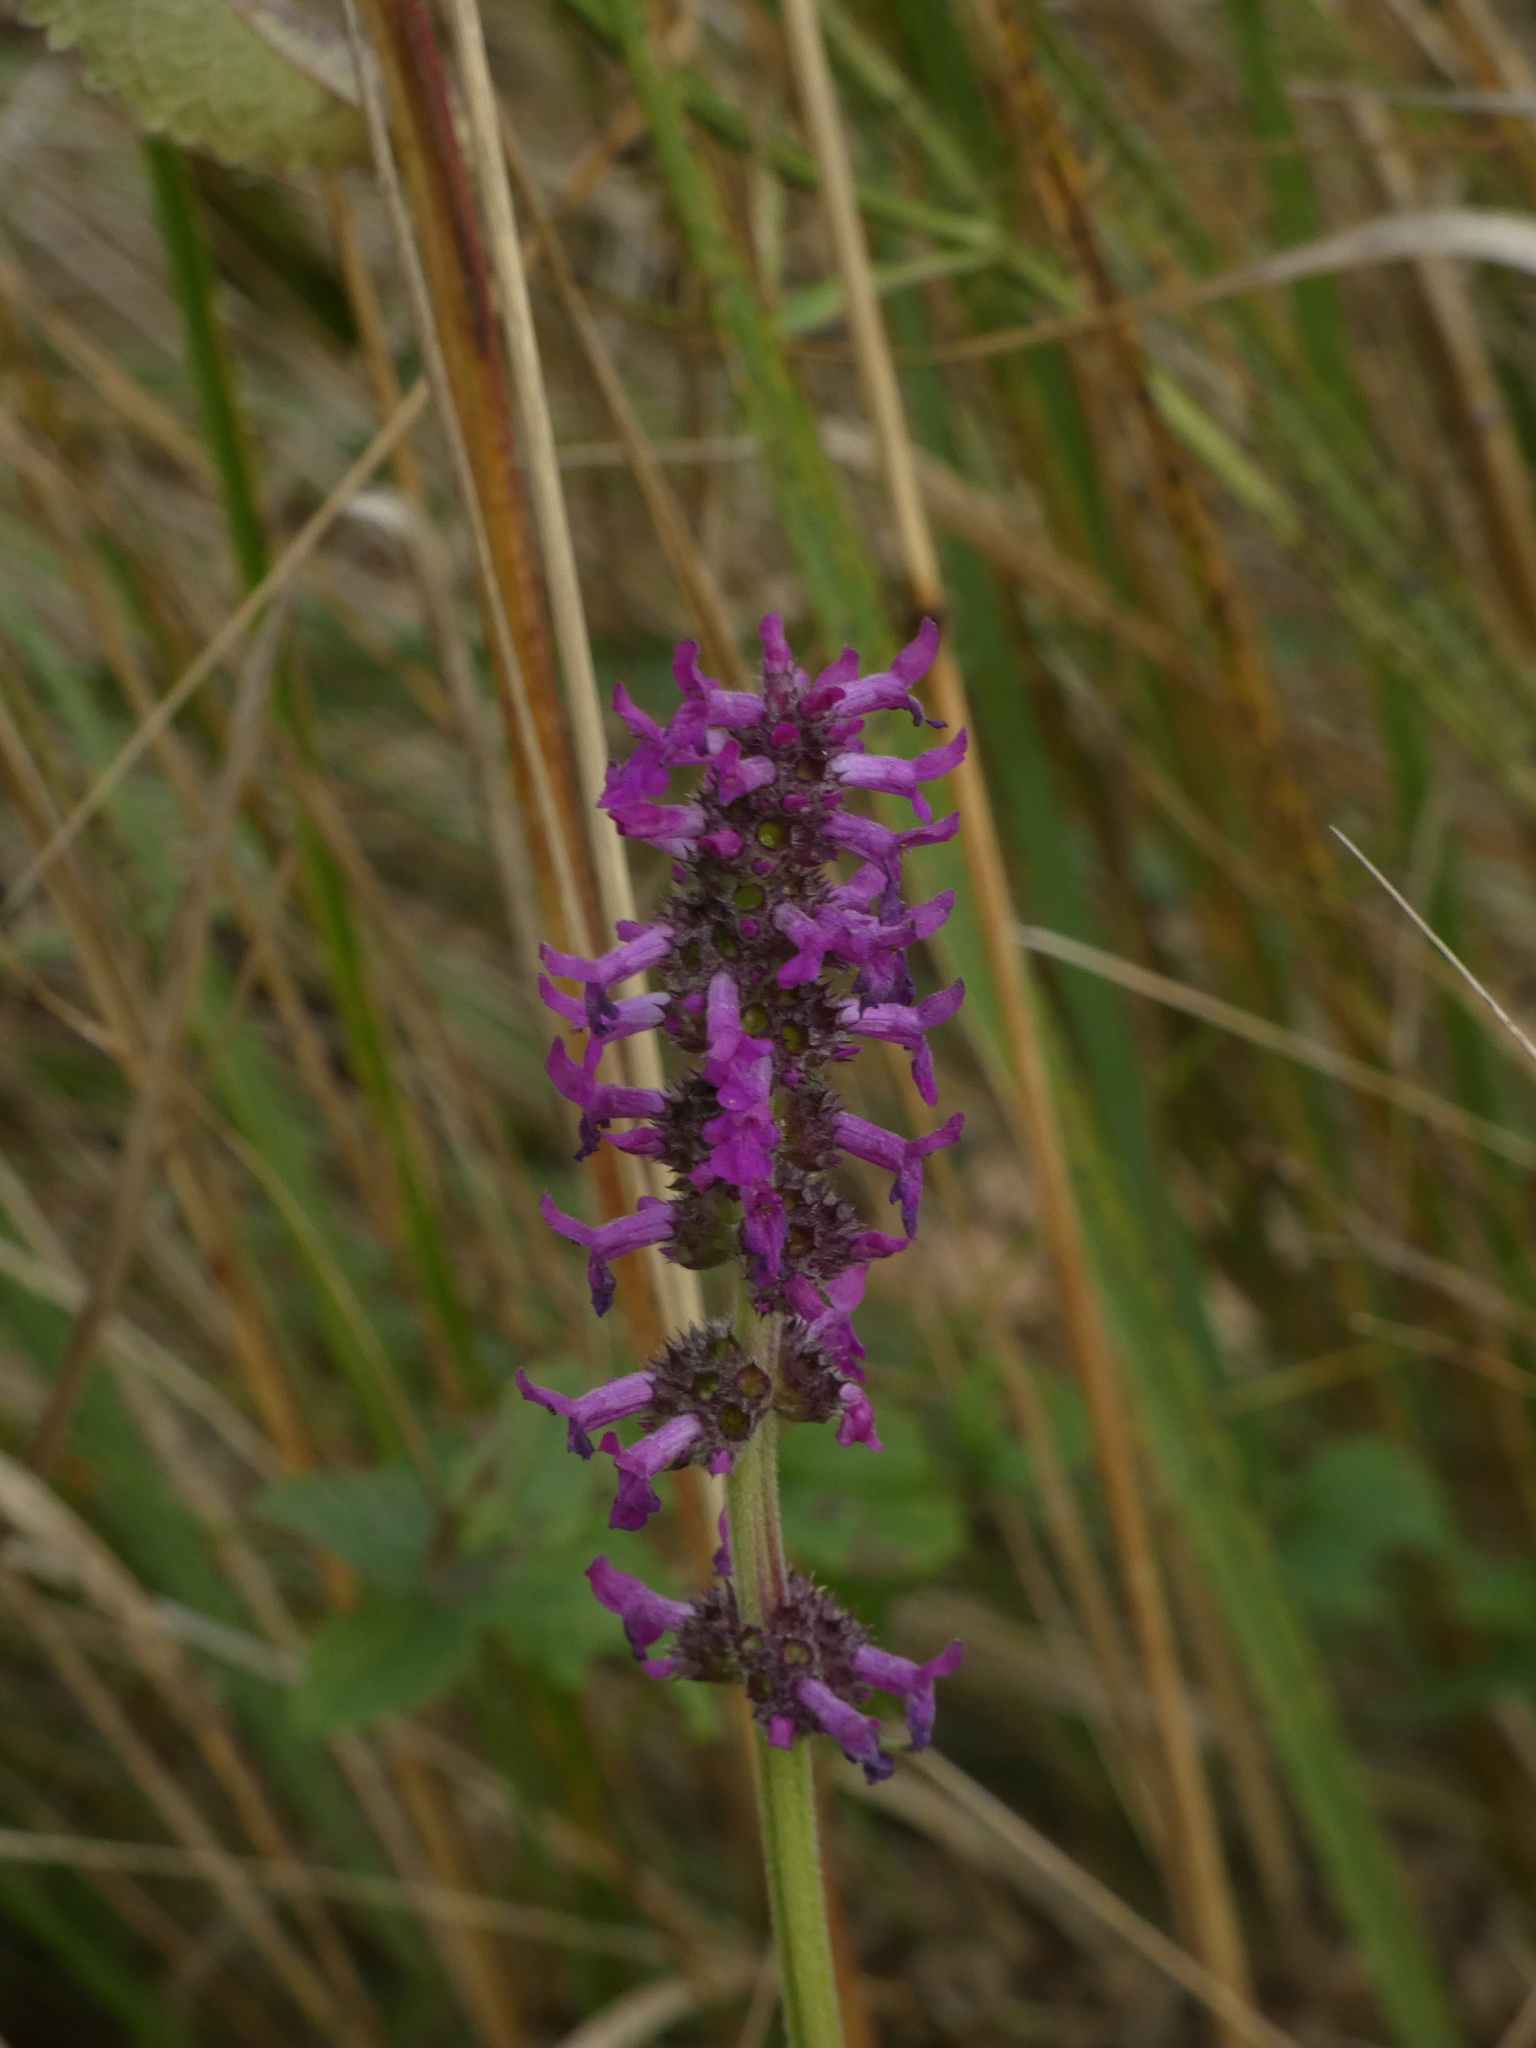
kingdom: Plantae
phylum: Tracheophyta
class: Magnoliopsida
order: Lamiales
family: Lamiaceae
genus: Betonica
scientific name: Betonica officinalis
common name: Bishop's-wort
